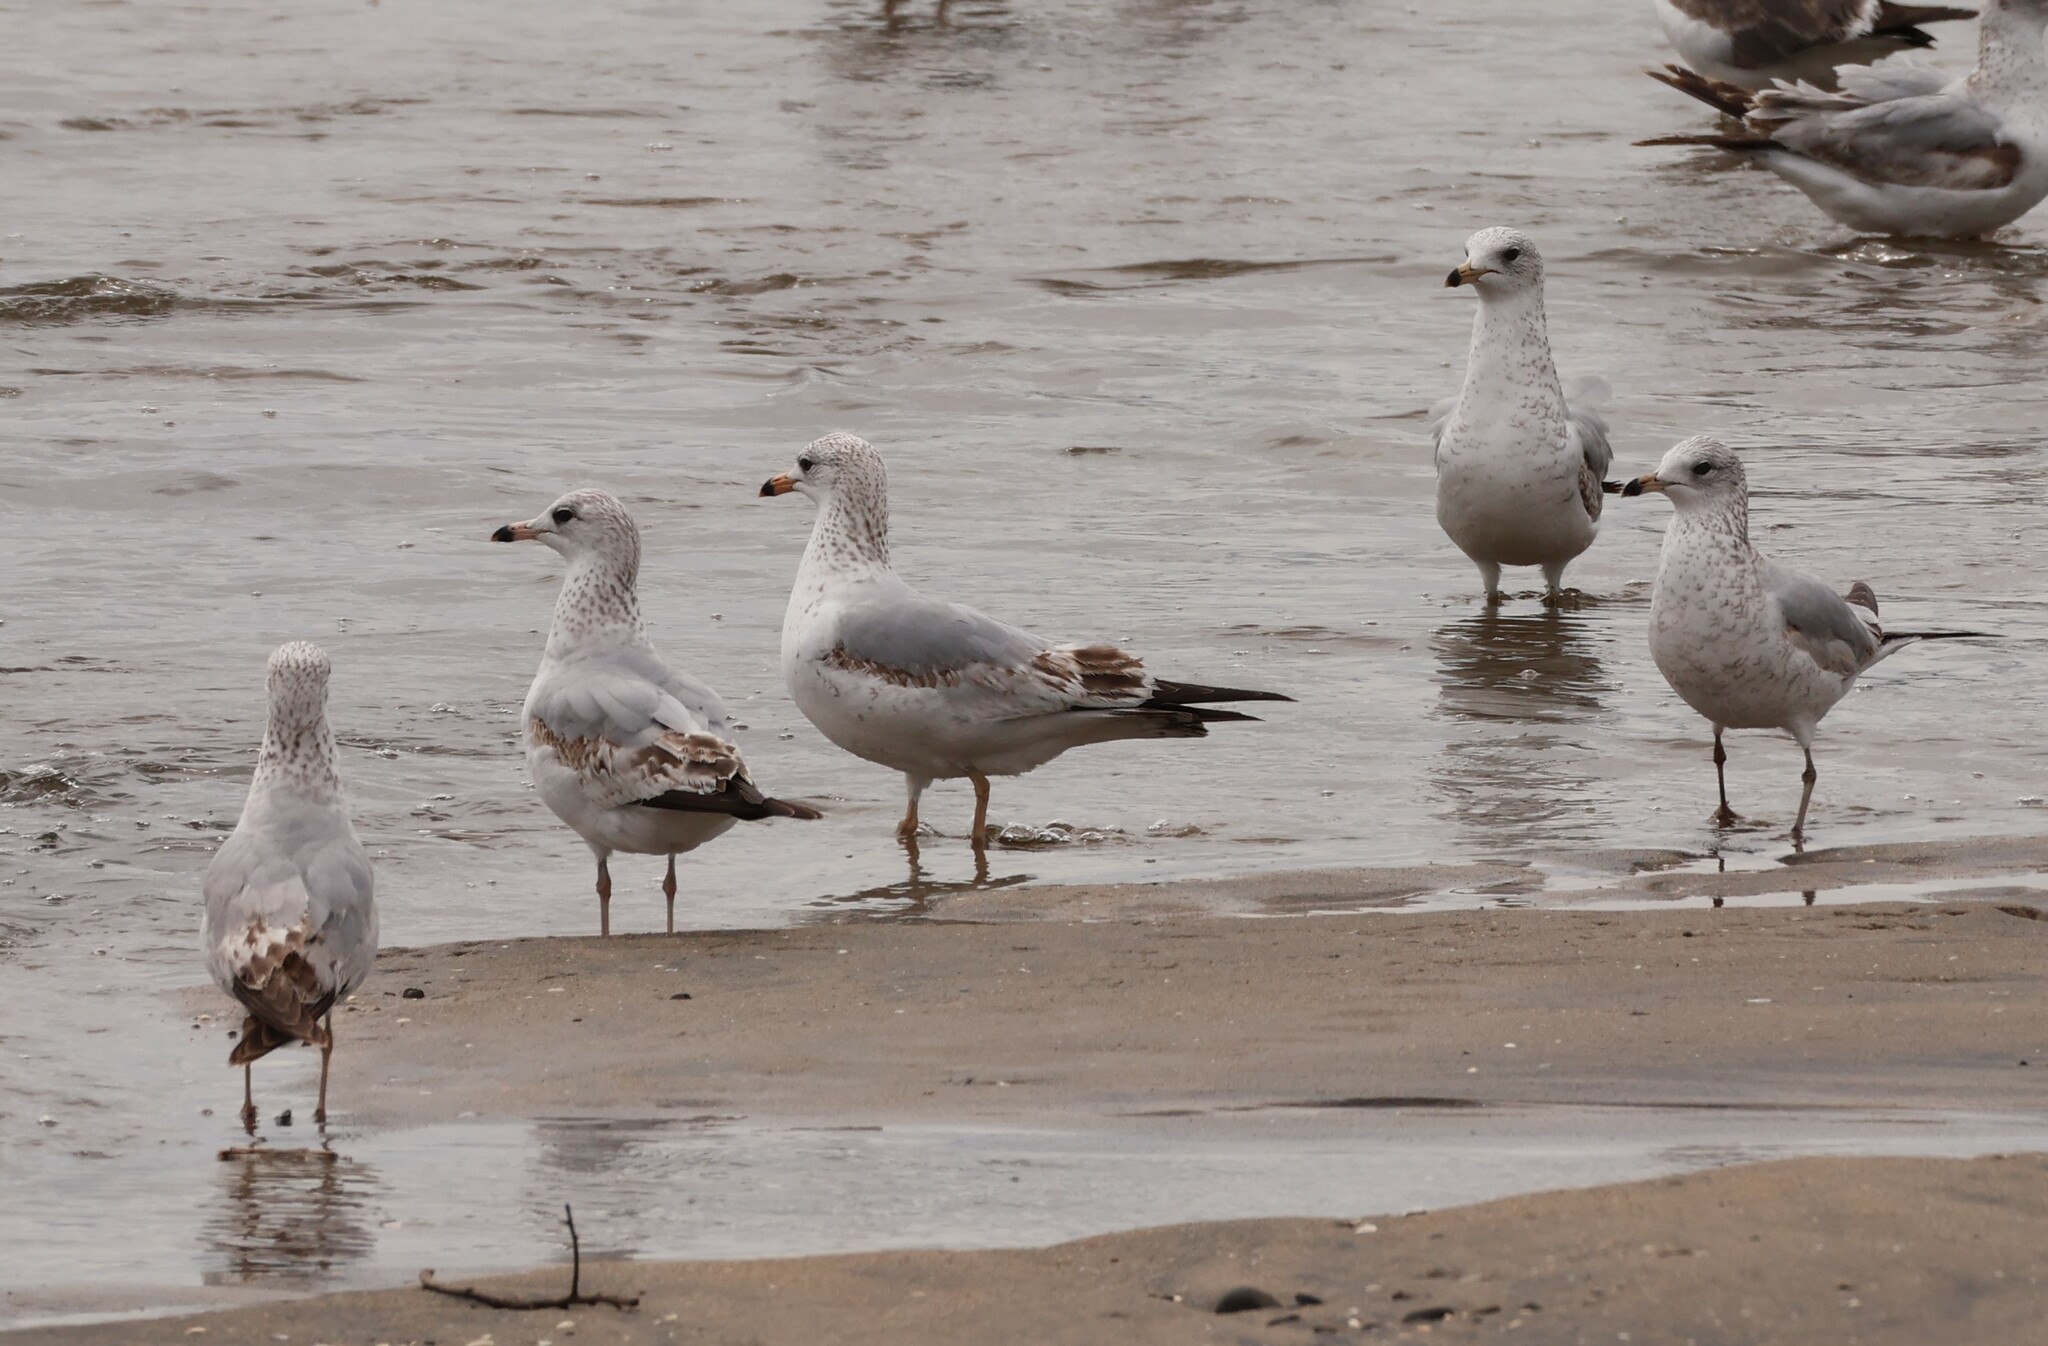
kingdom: Animalia
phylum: Chordata
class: Aves
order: Charadriiformes
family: Laridae
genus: Larus
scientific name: Larus delawarensis
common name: Ring-billed gull
